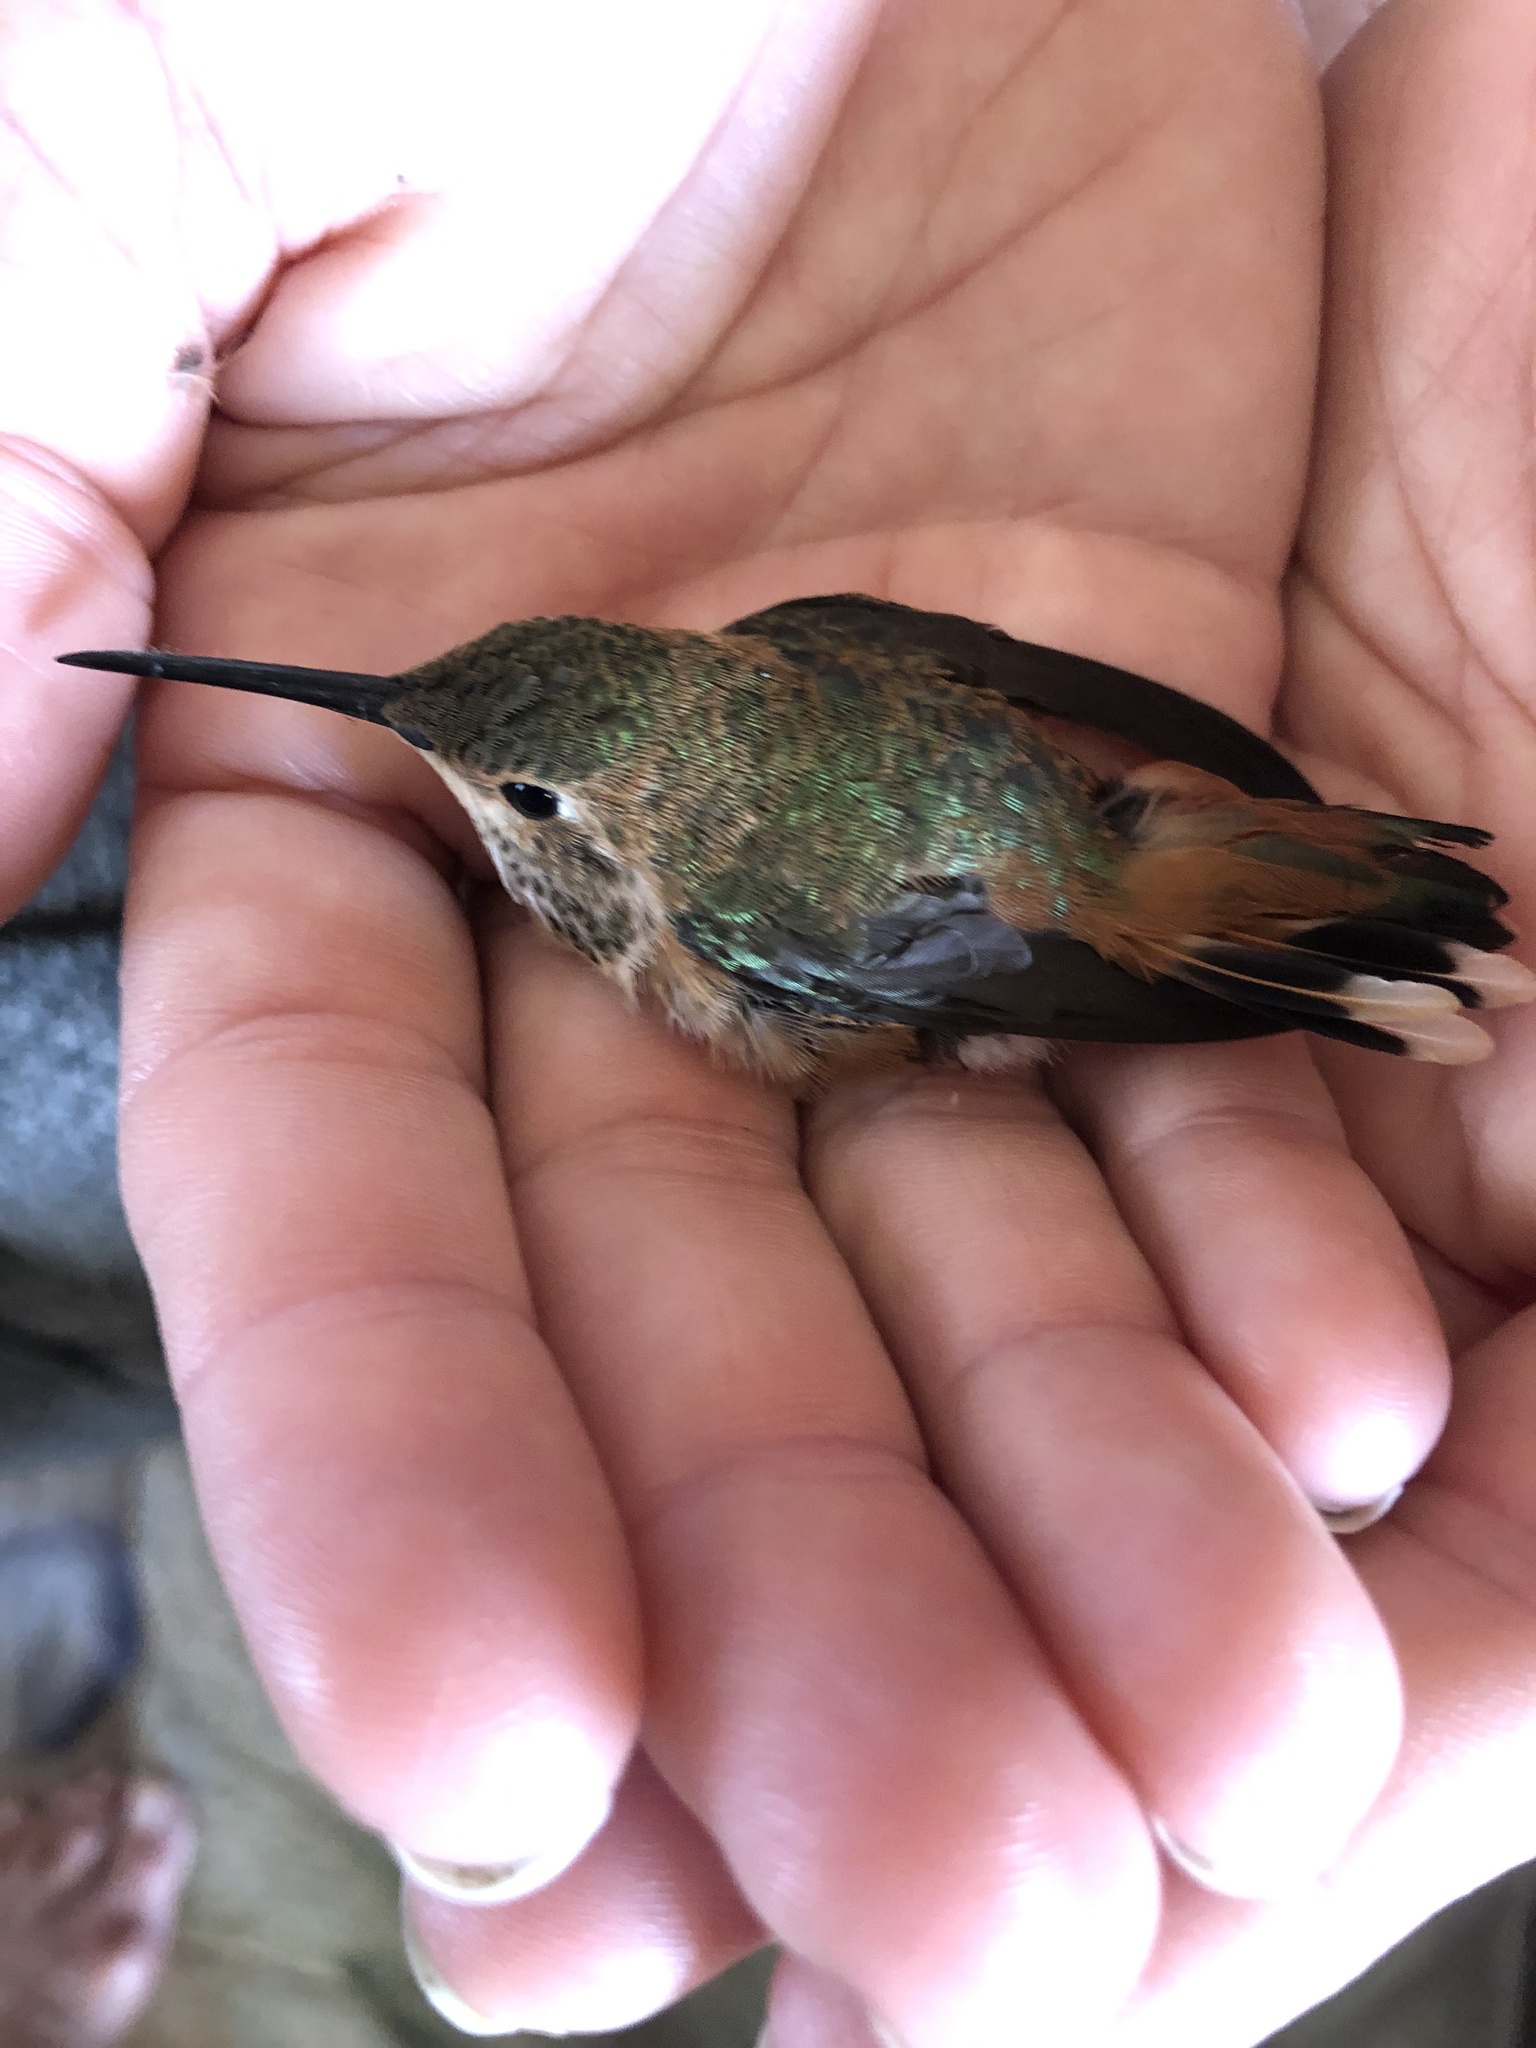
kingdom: Animalia
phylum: Chordata
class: Aves
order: Apodiformes
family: Trochilidae
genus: Selasphorus
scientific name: Selasphorus sasin
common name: Allen's hummingbird
